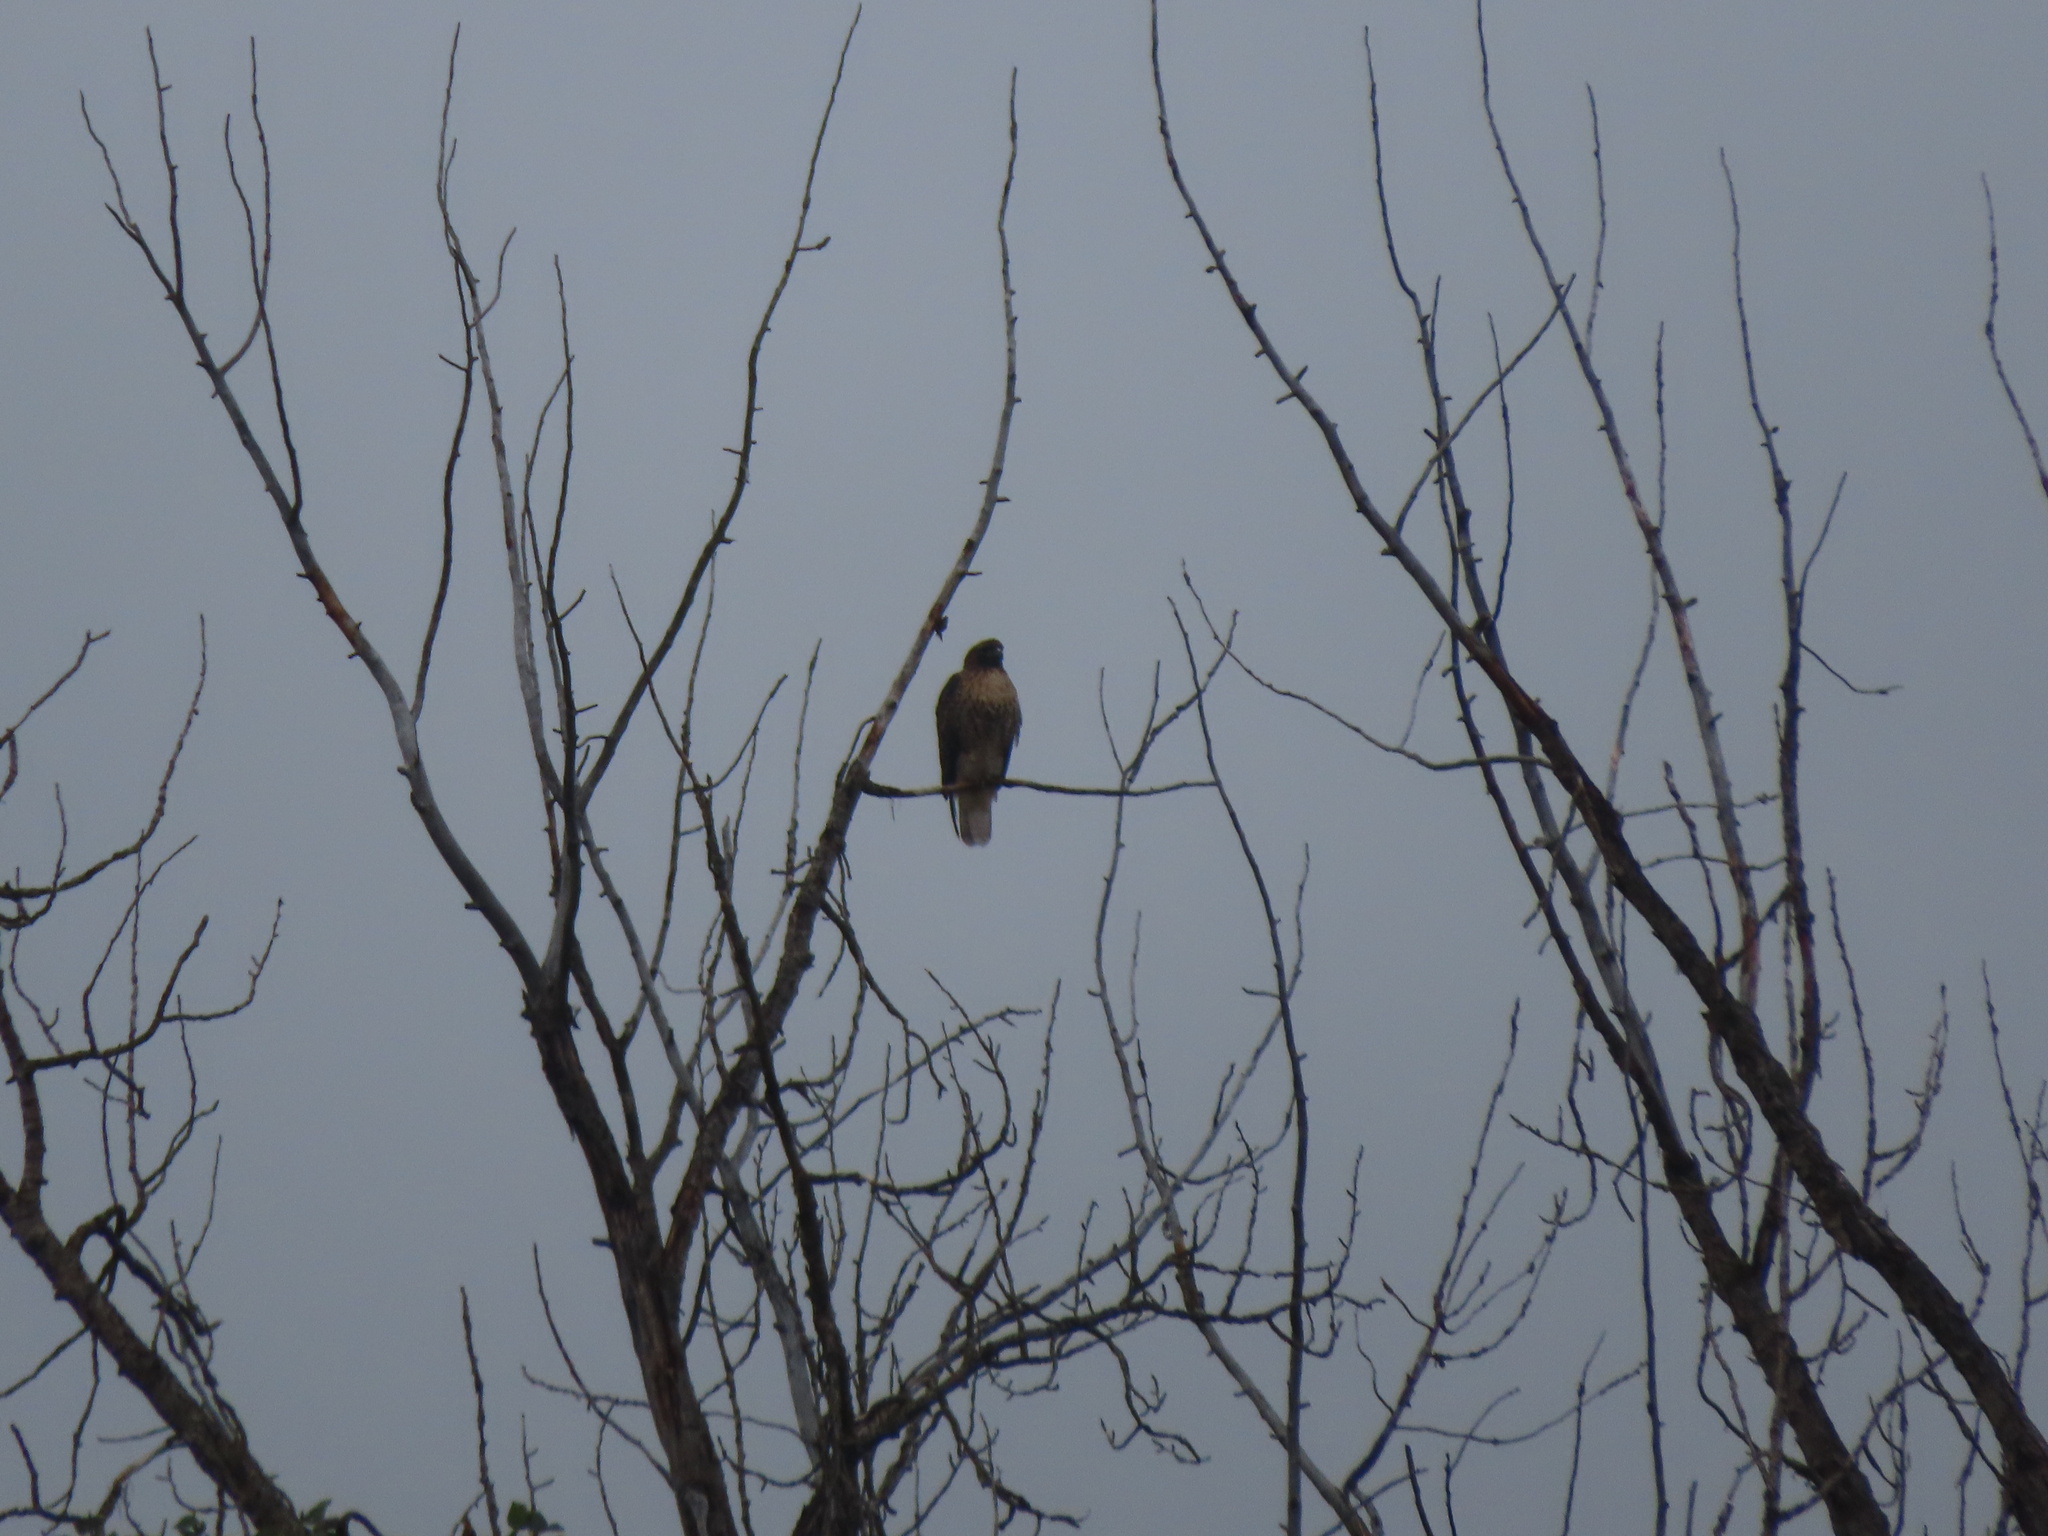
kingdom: Animalia
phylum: Chordata
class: Aves
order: Accipitriformes
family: Accipitridae
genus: Buteo
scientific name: Buteo jamaicensis
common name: Red-tailed hawk
